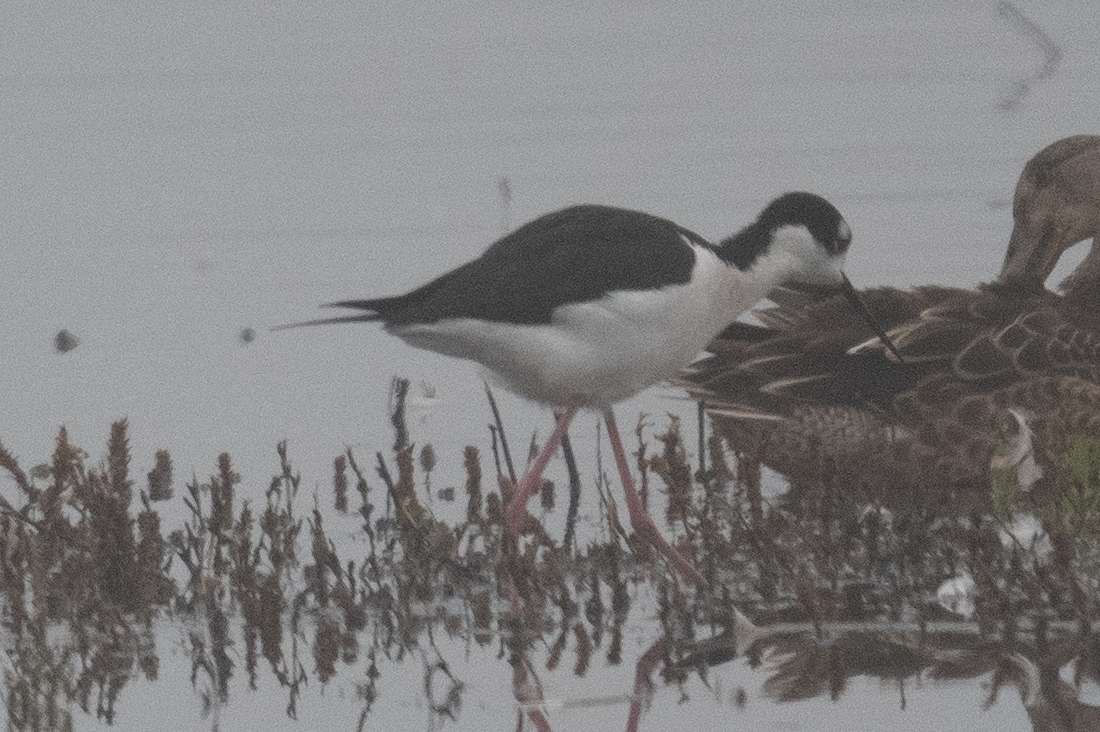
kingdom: Animalia
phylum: Chordata
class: Aves
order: Charadriiformes
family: Recurvirostridae
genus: Himantopus
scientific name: Himantopus mexicanus
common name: Black-necked stilt
